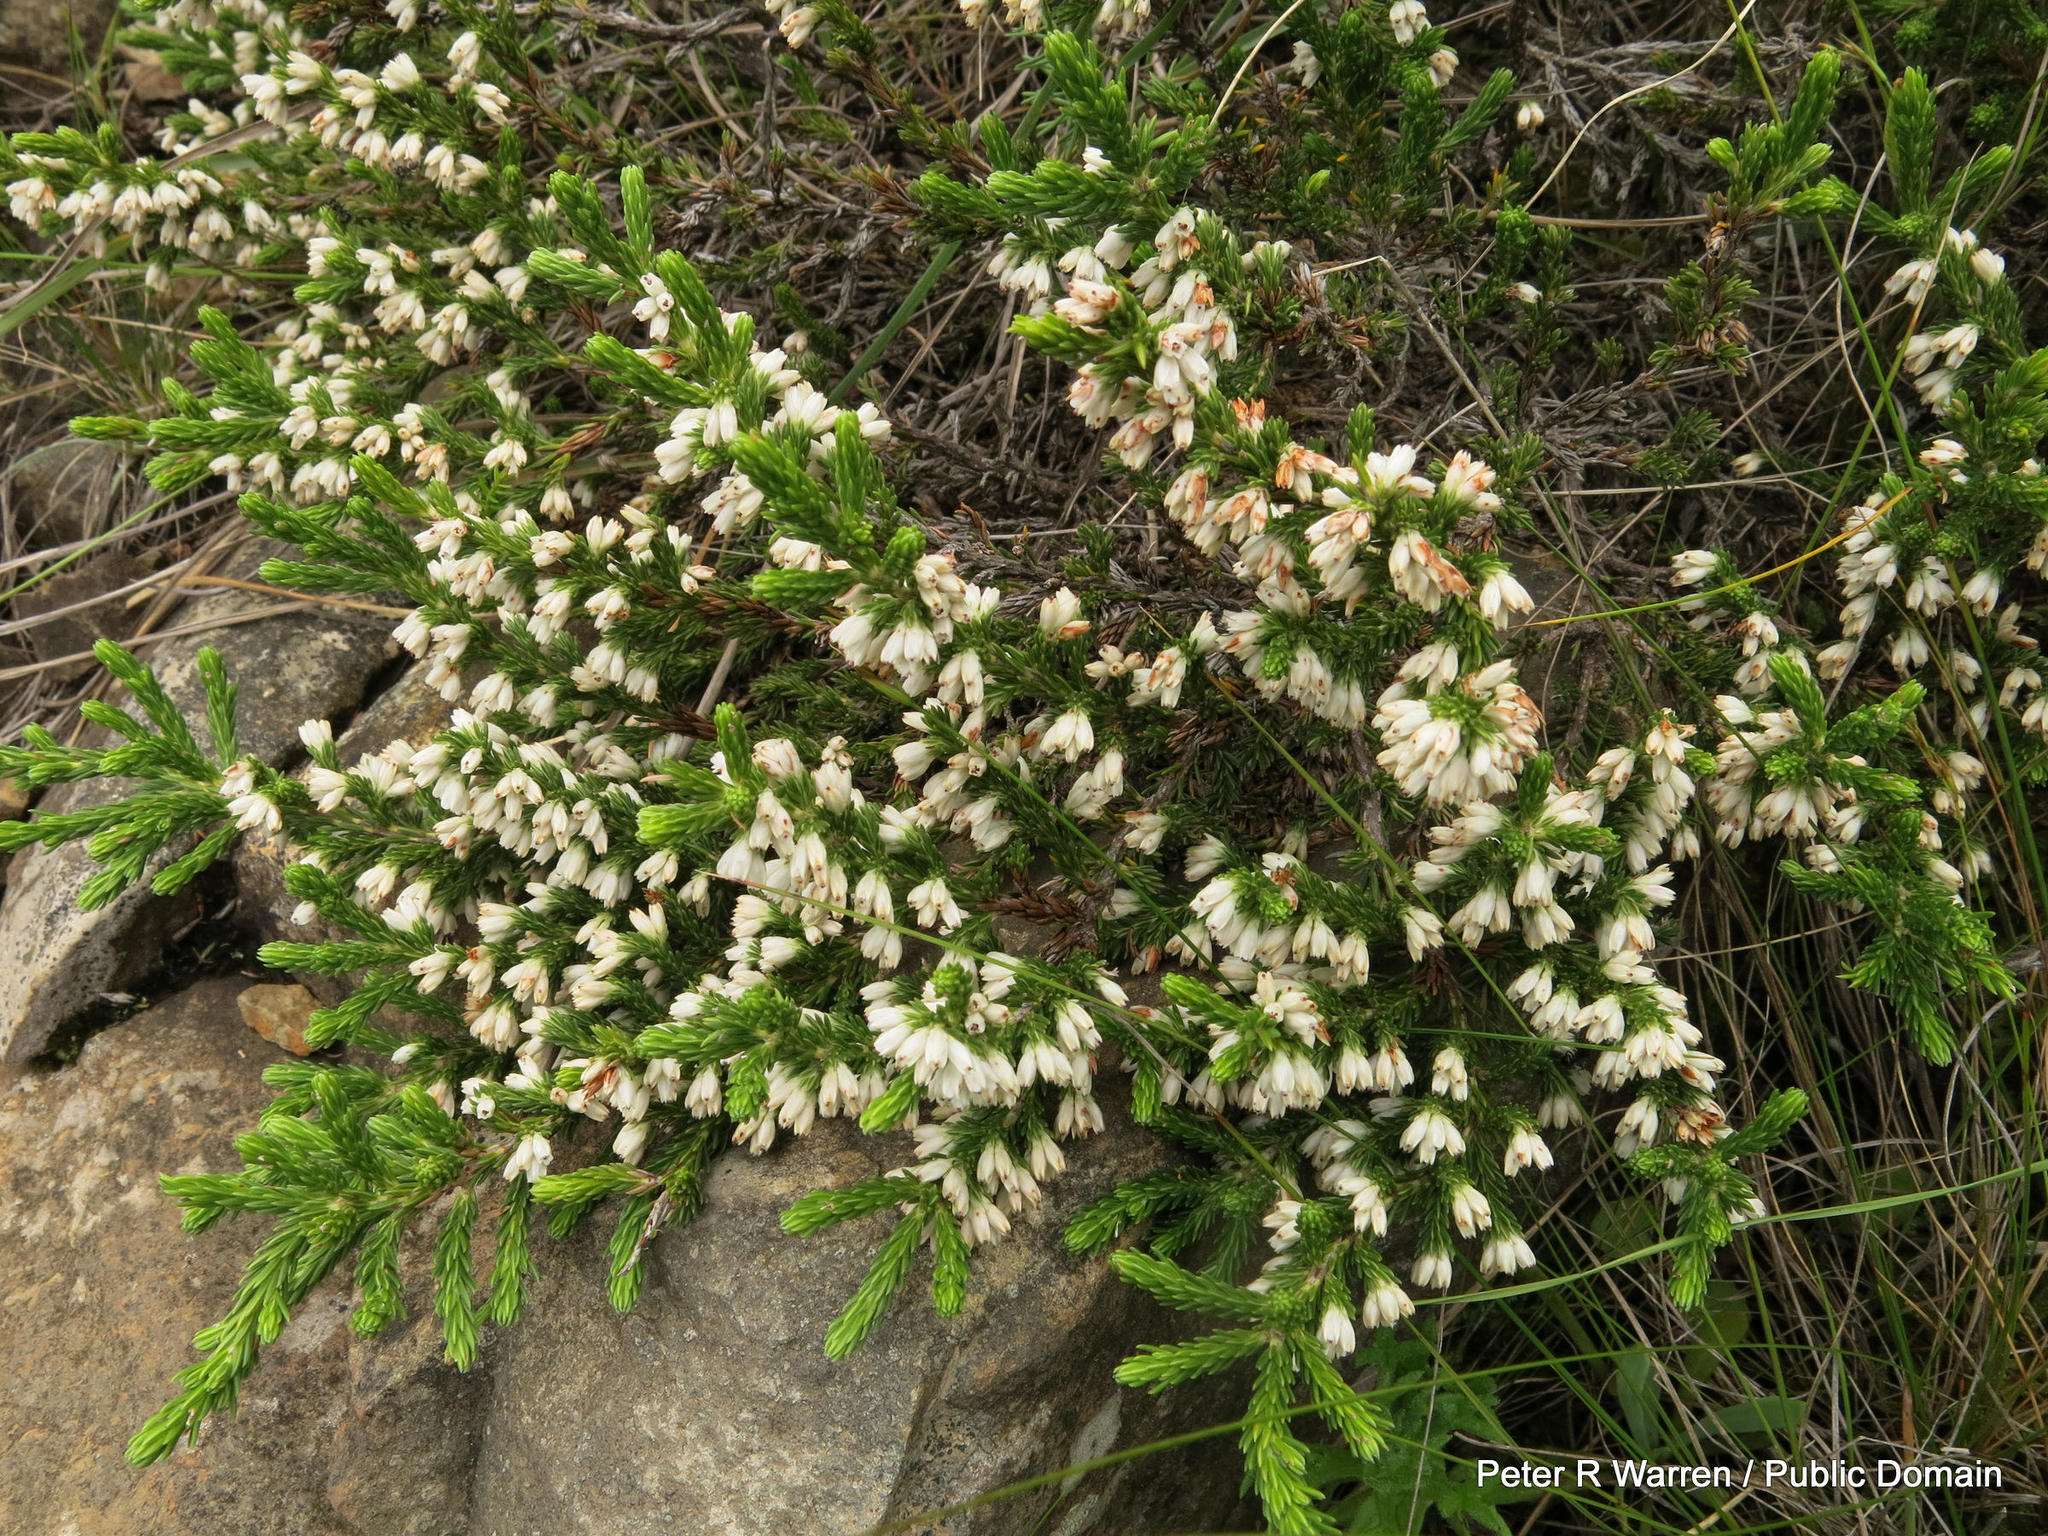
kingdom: Plantae
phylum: Tracheophyta
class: Magnoliopsida
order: Ericales
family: Ericaceae
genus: Erica
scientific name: Erica caffrorum
